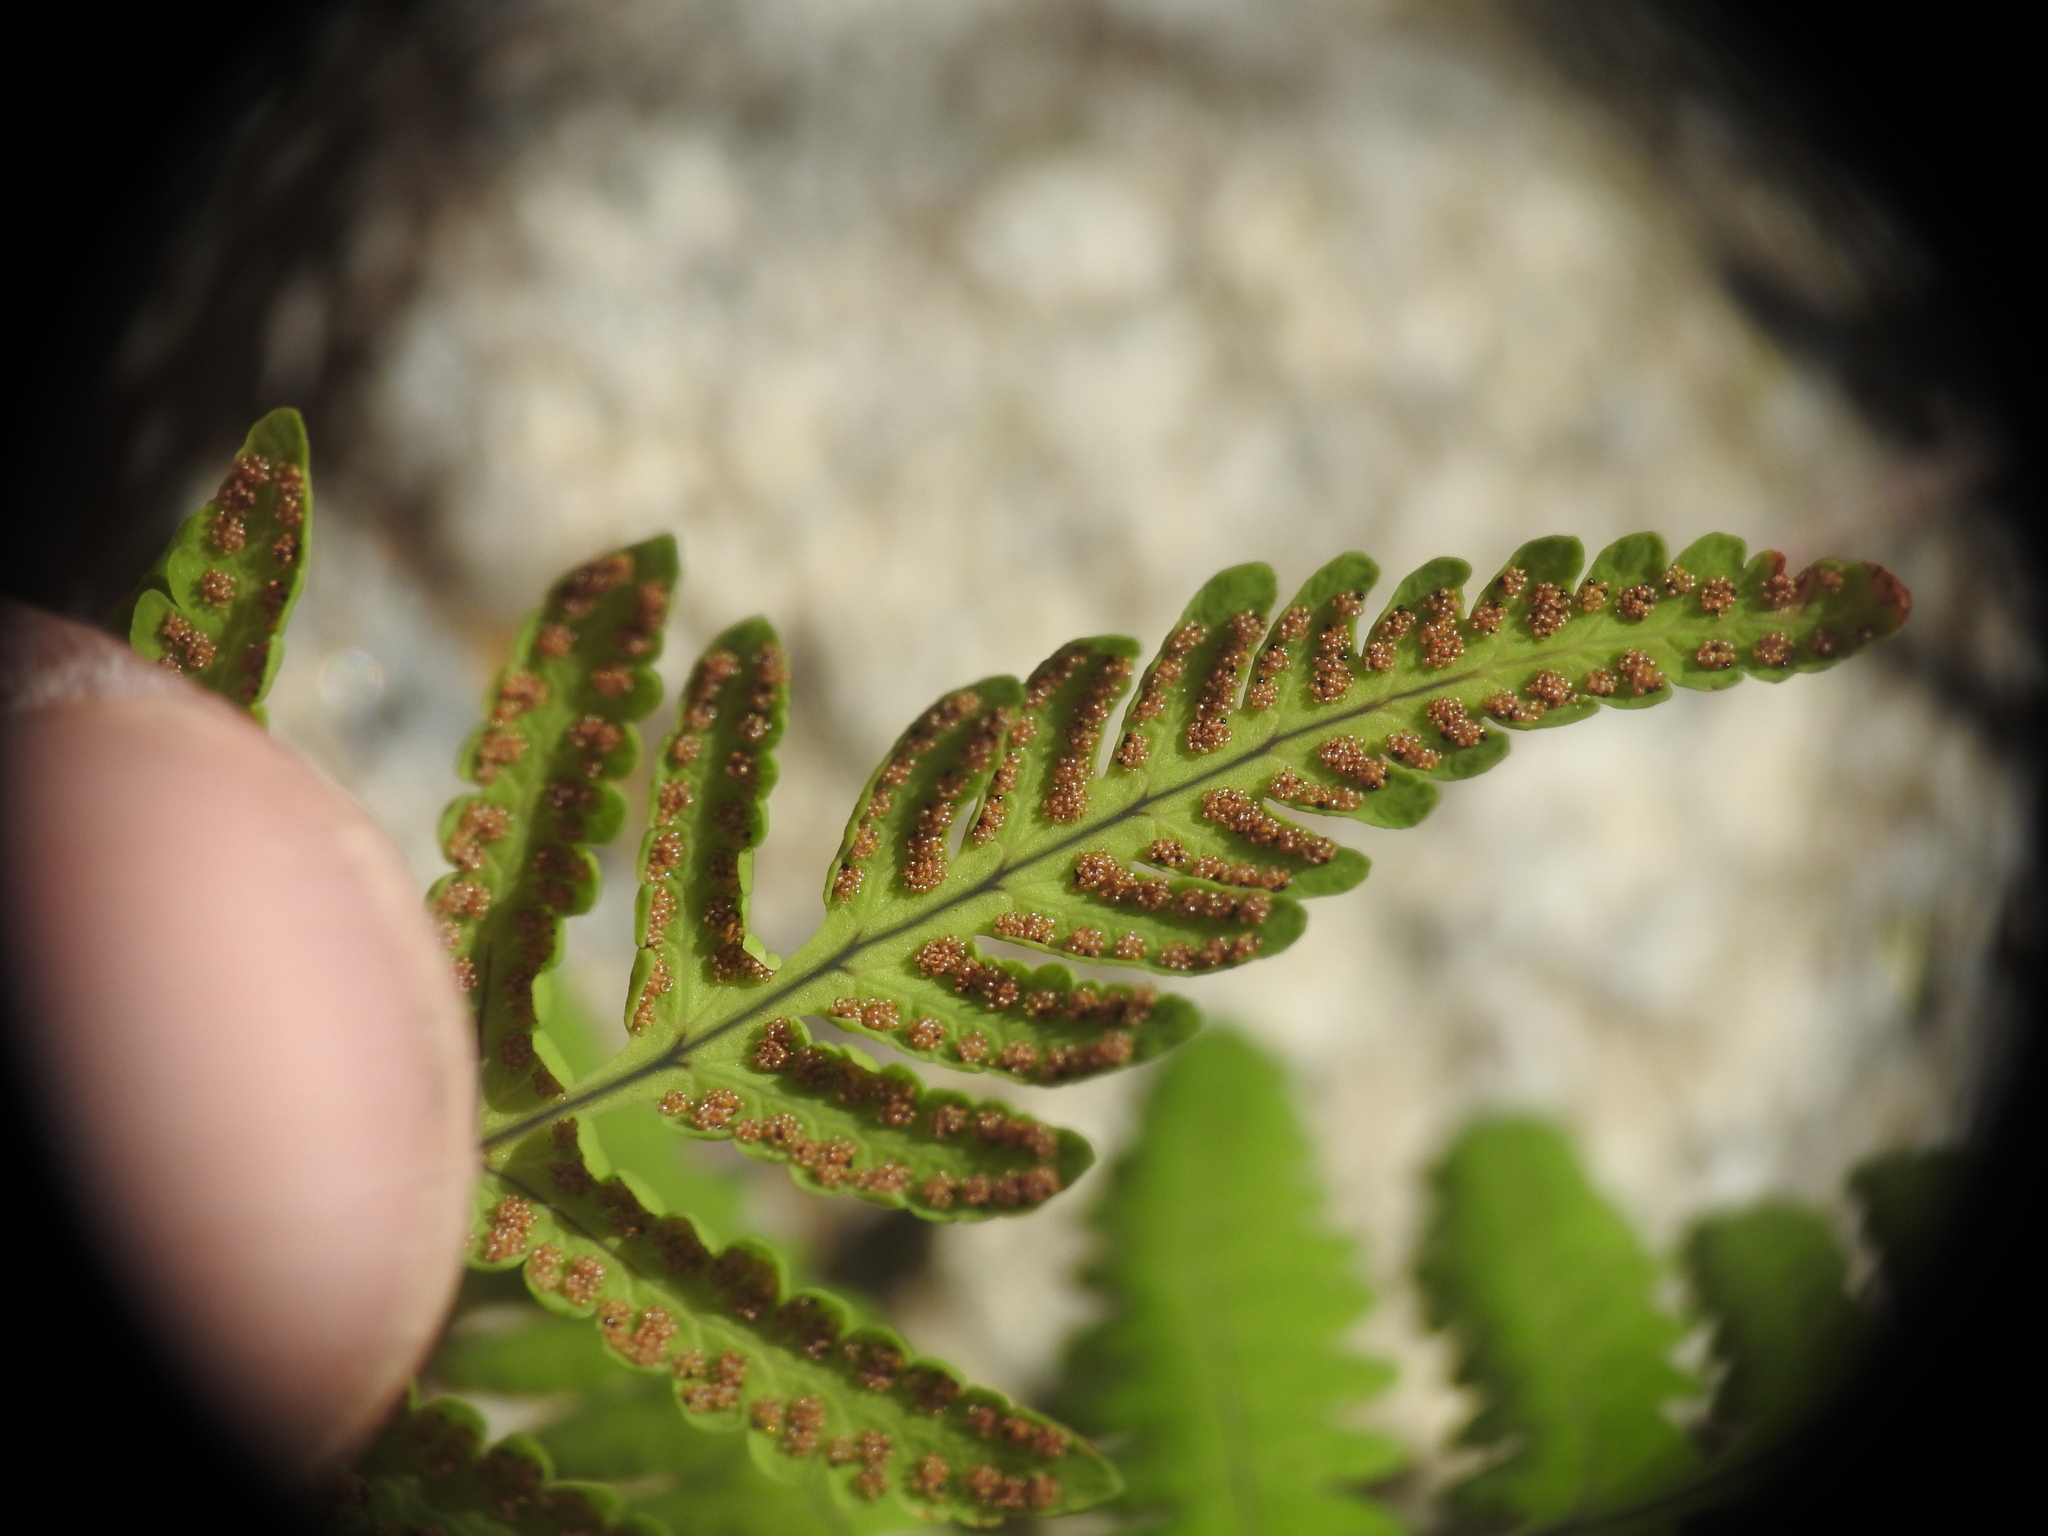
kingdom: Plantae
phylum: Tracheophyta
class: Polypodiopsida
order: Polypodiales
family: Cystopteridaceae
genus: Gymnocarpium
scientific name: Gymnocarpium dryopteris
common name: Oak fern
